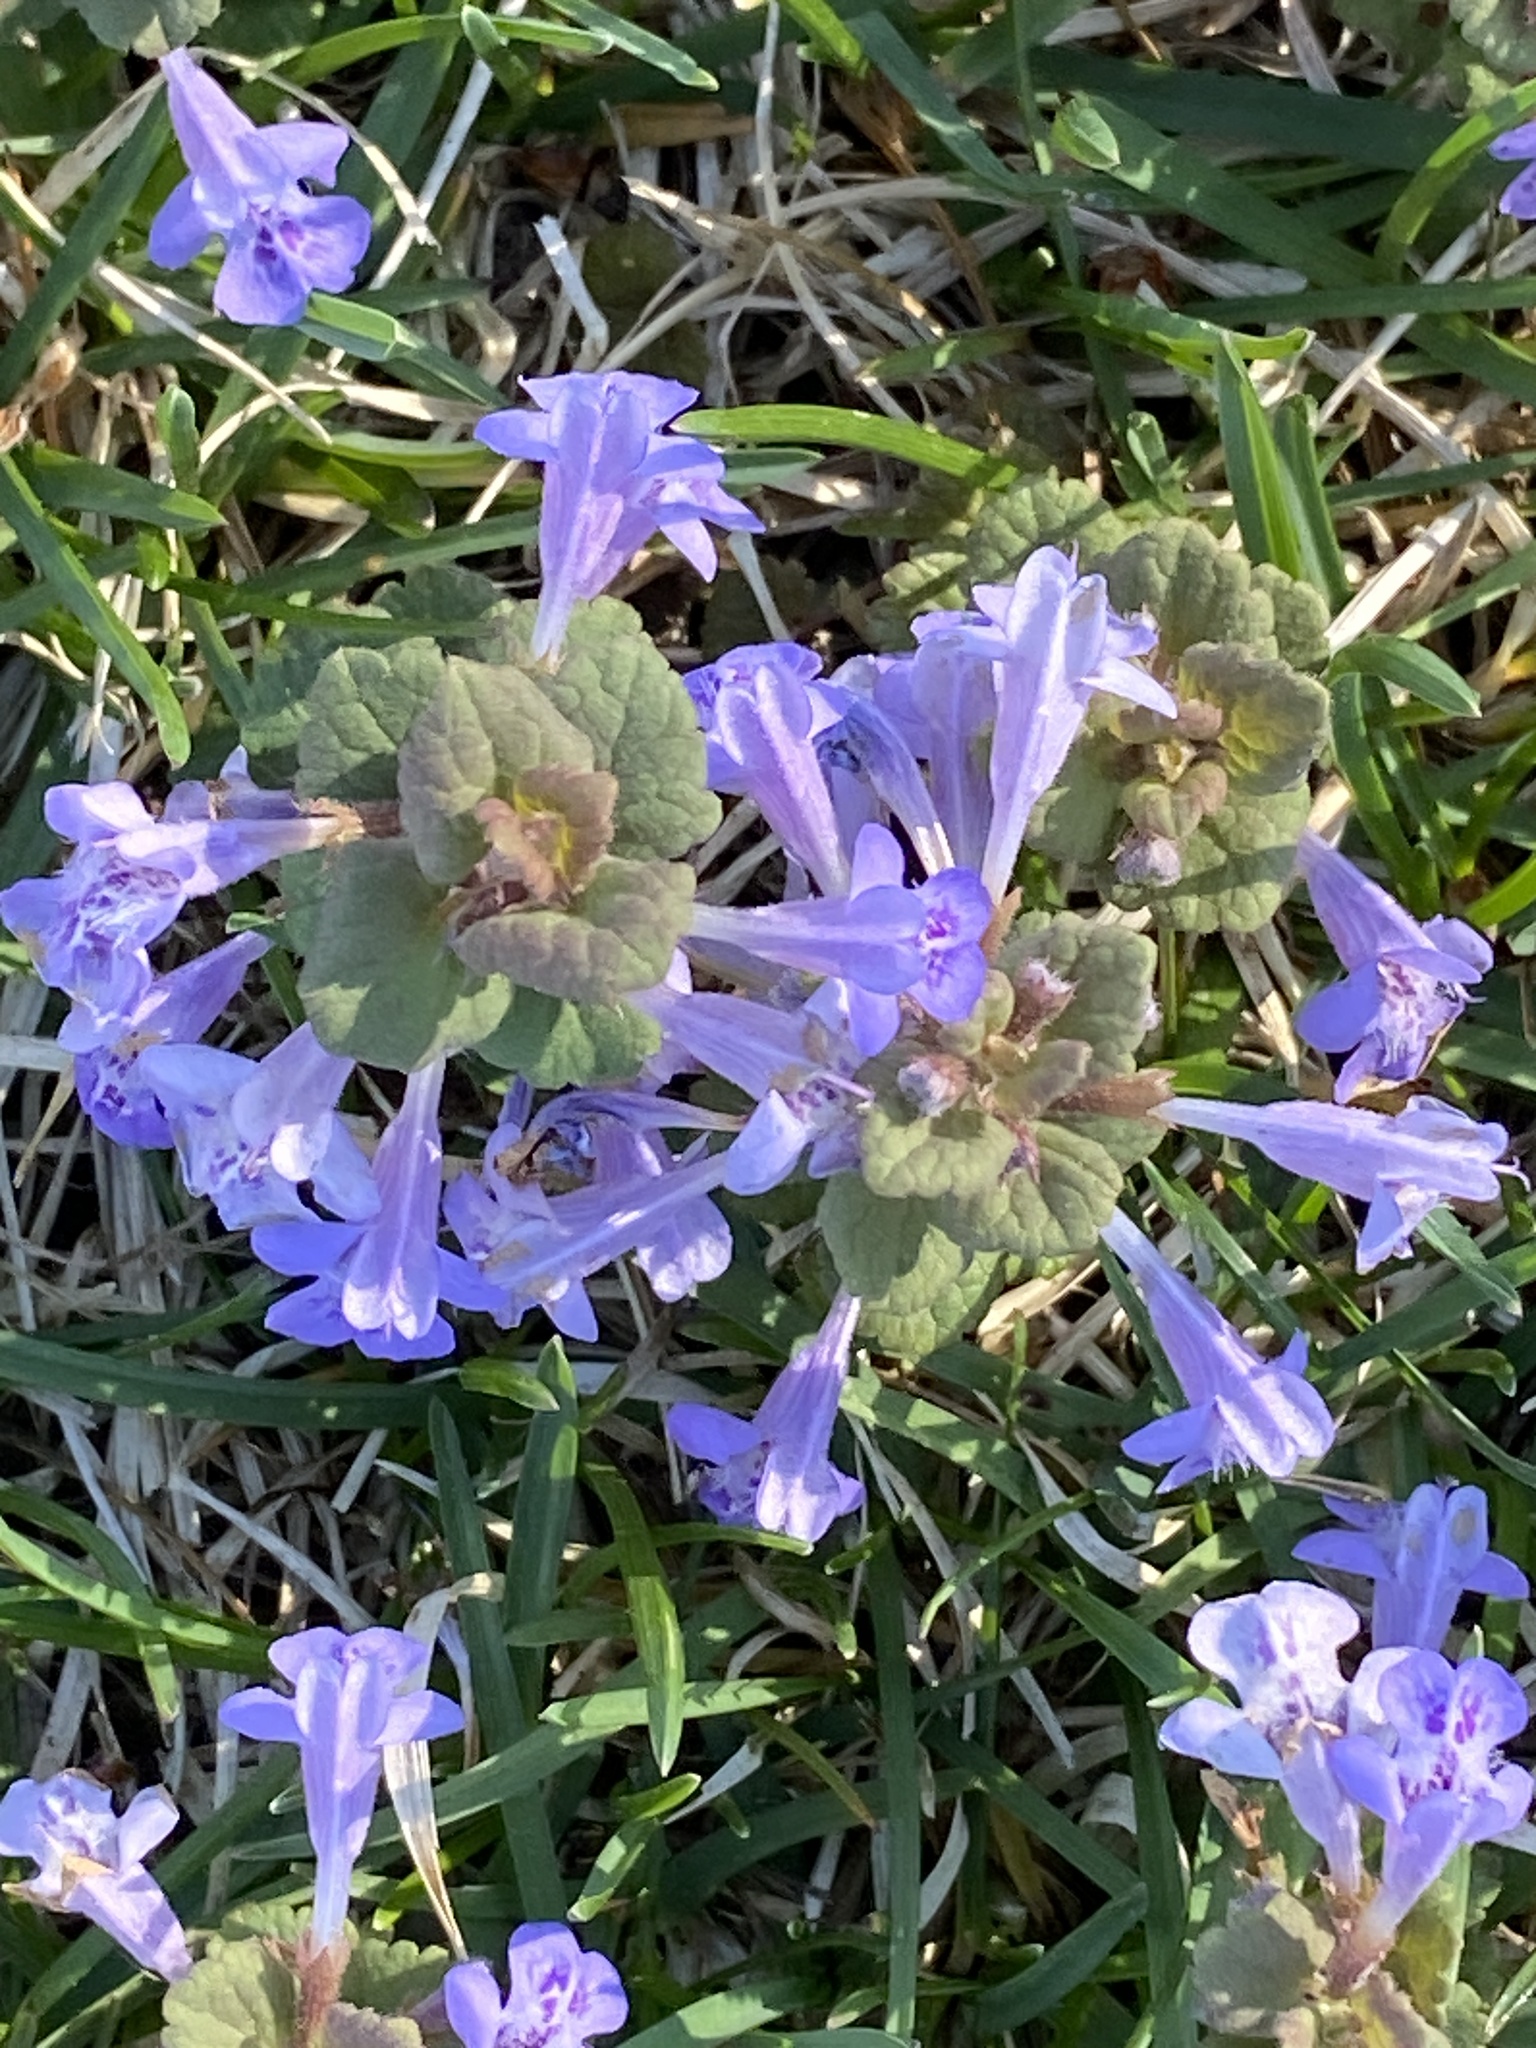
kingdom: Plantae
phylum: Tracheophyta
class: Magnoliopsida
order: Lamiales
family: Lamiaceae
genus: Glechoma
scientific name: Glechoma hederacea
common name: Ground ivy
